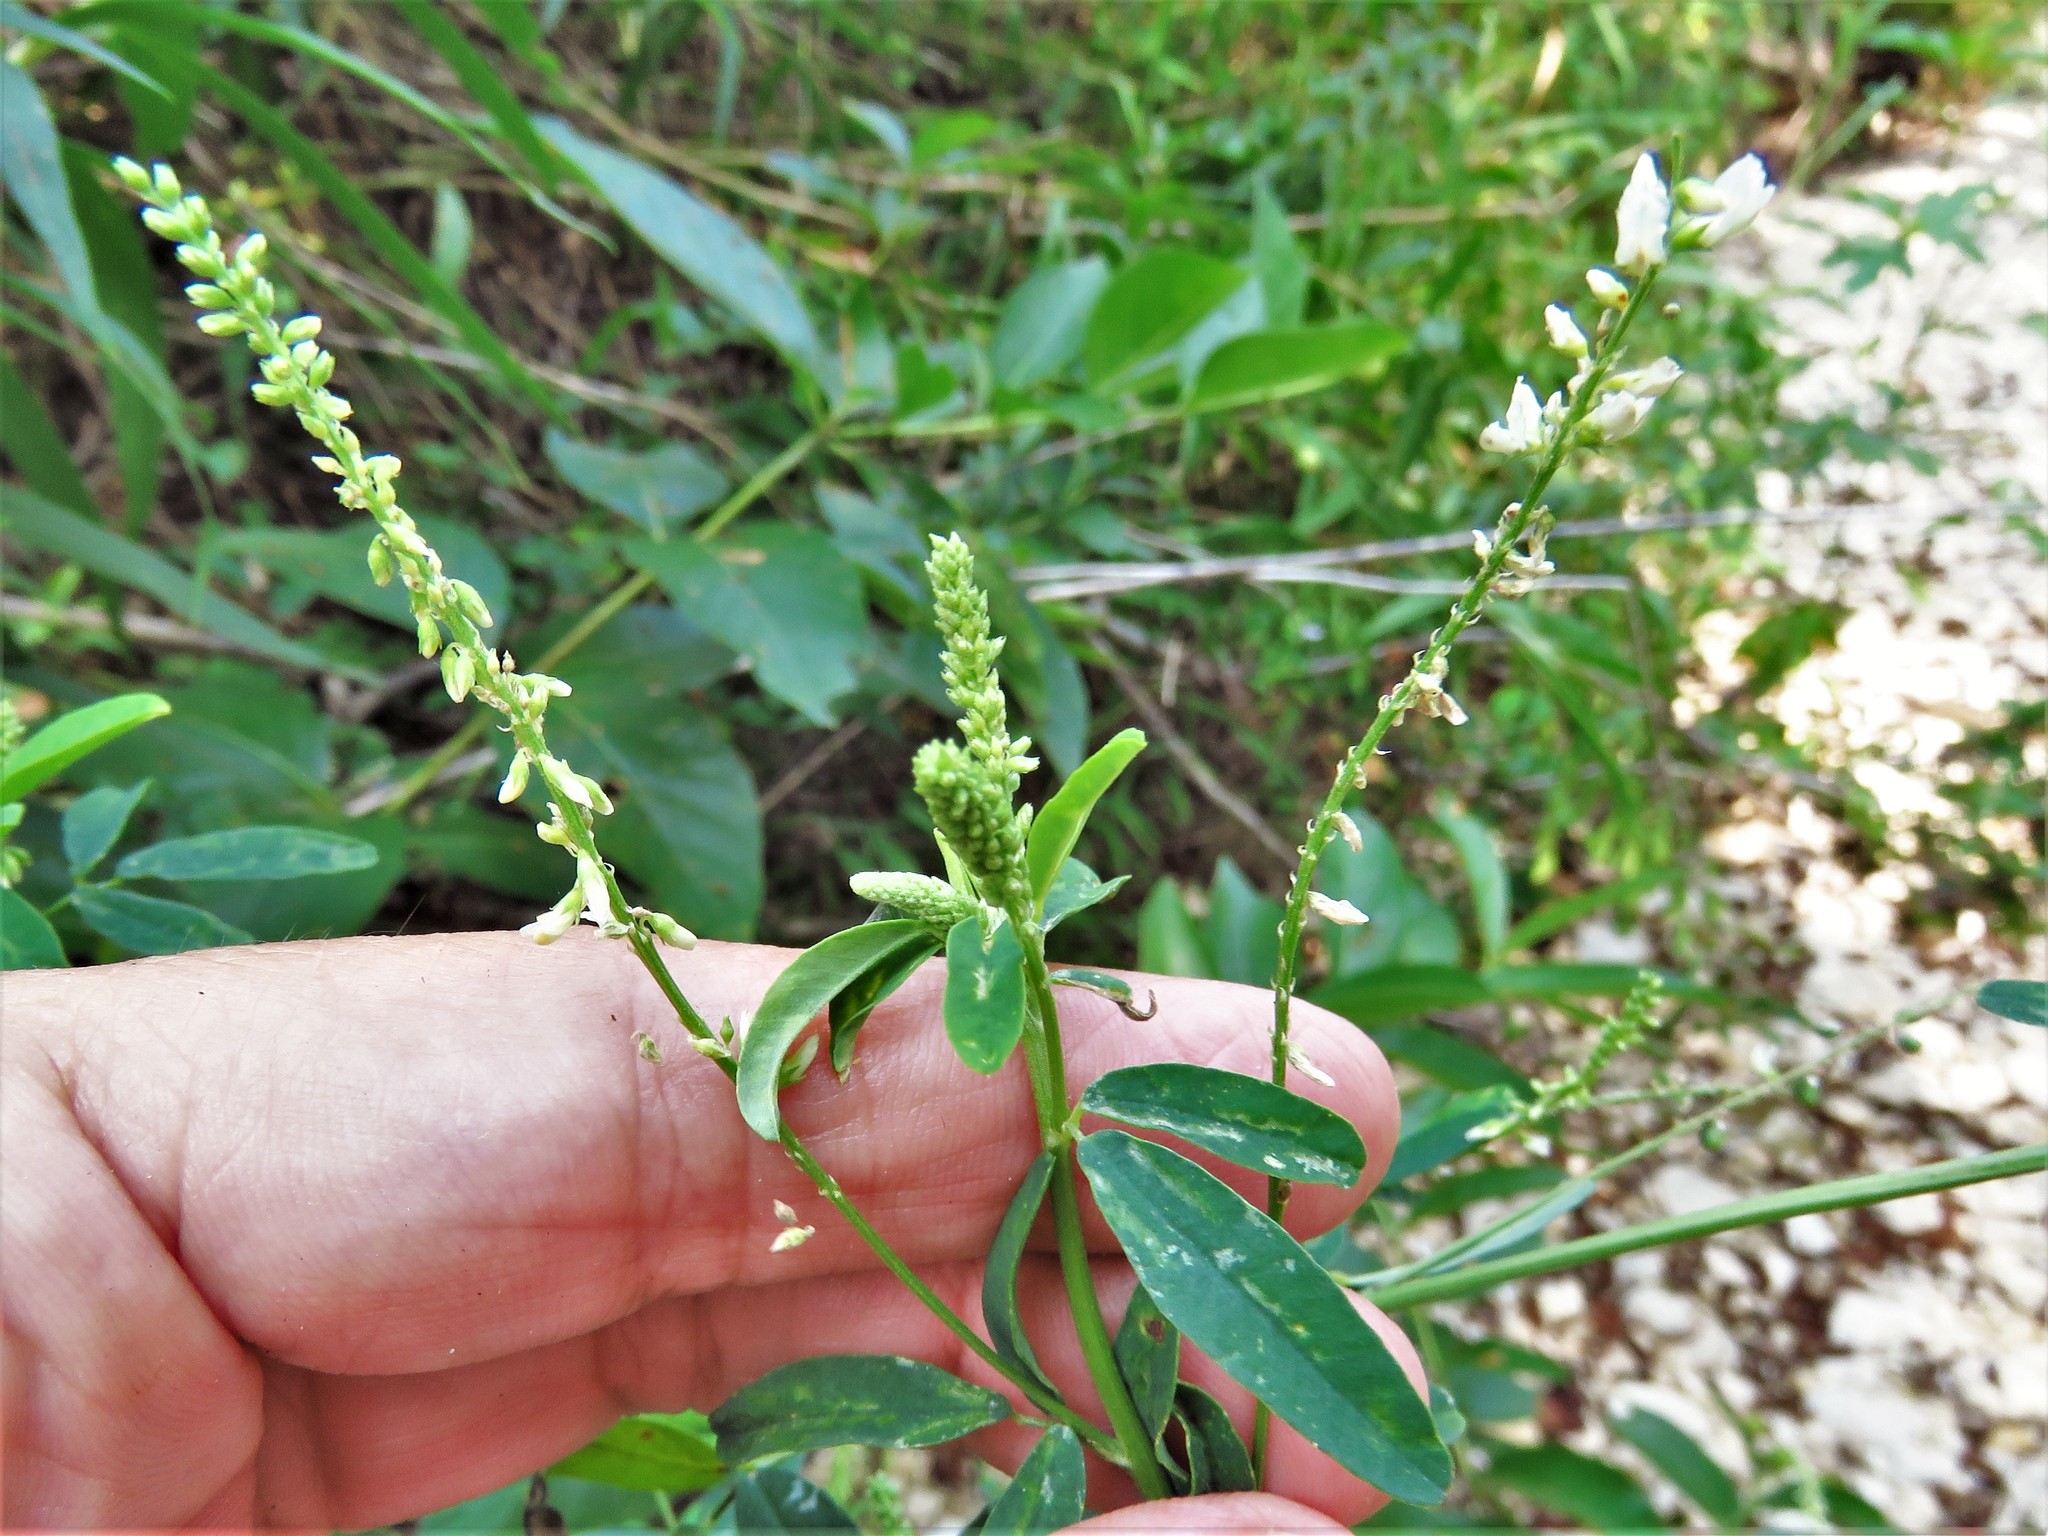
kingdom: Plantae
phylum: Tracheophyta
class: Magnoliopsida
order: Fabales
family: Fabaceae
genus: Melilotus
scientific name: Melilotus albus
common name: White melilot
